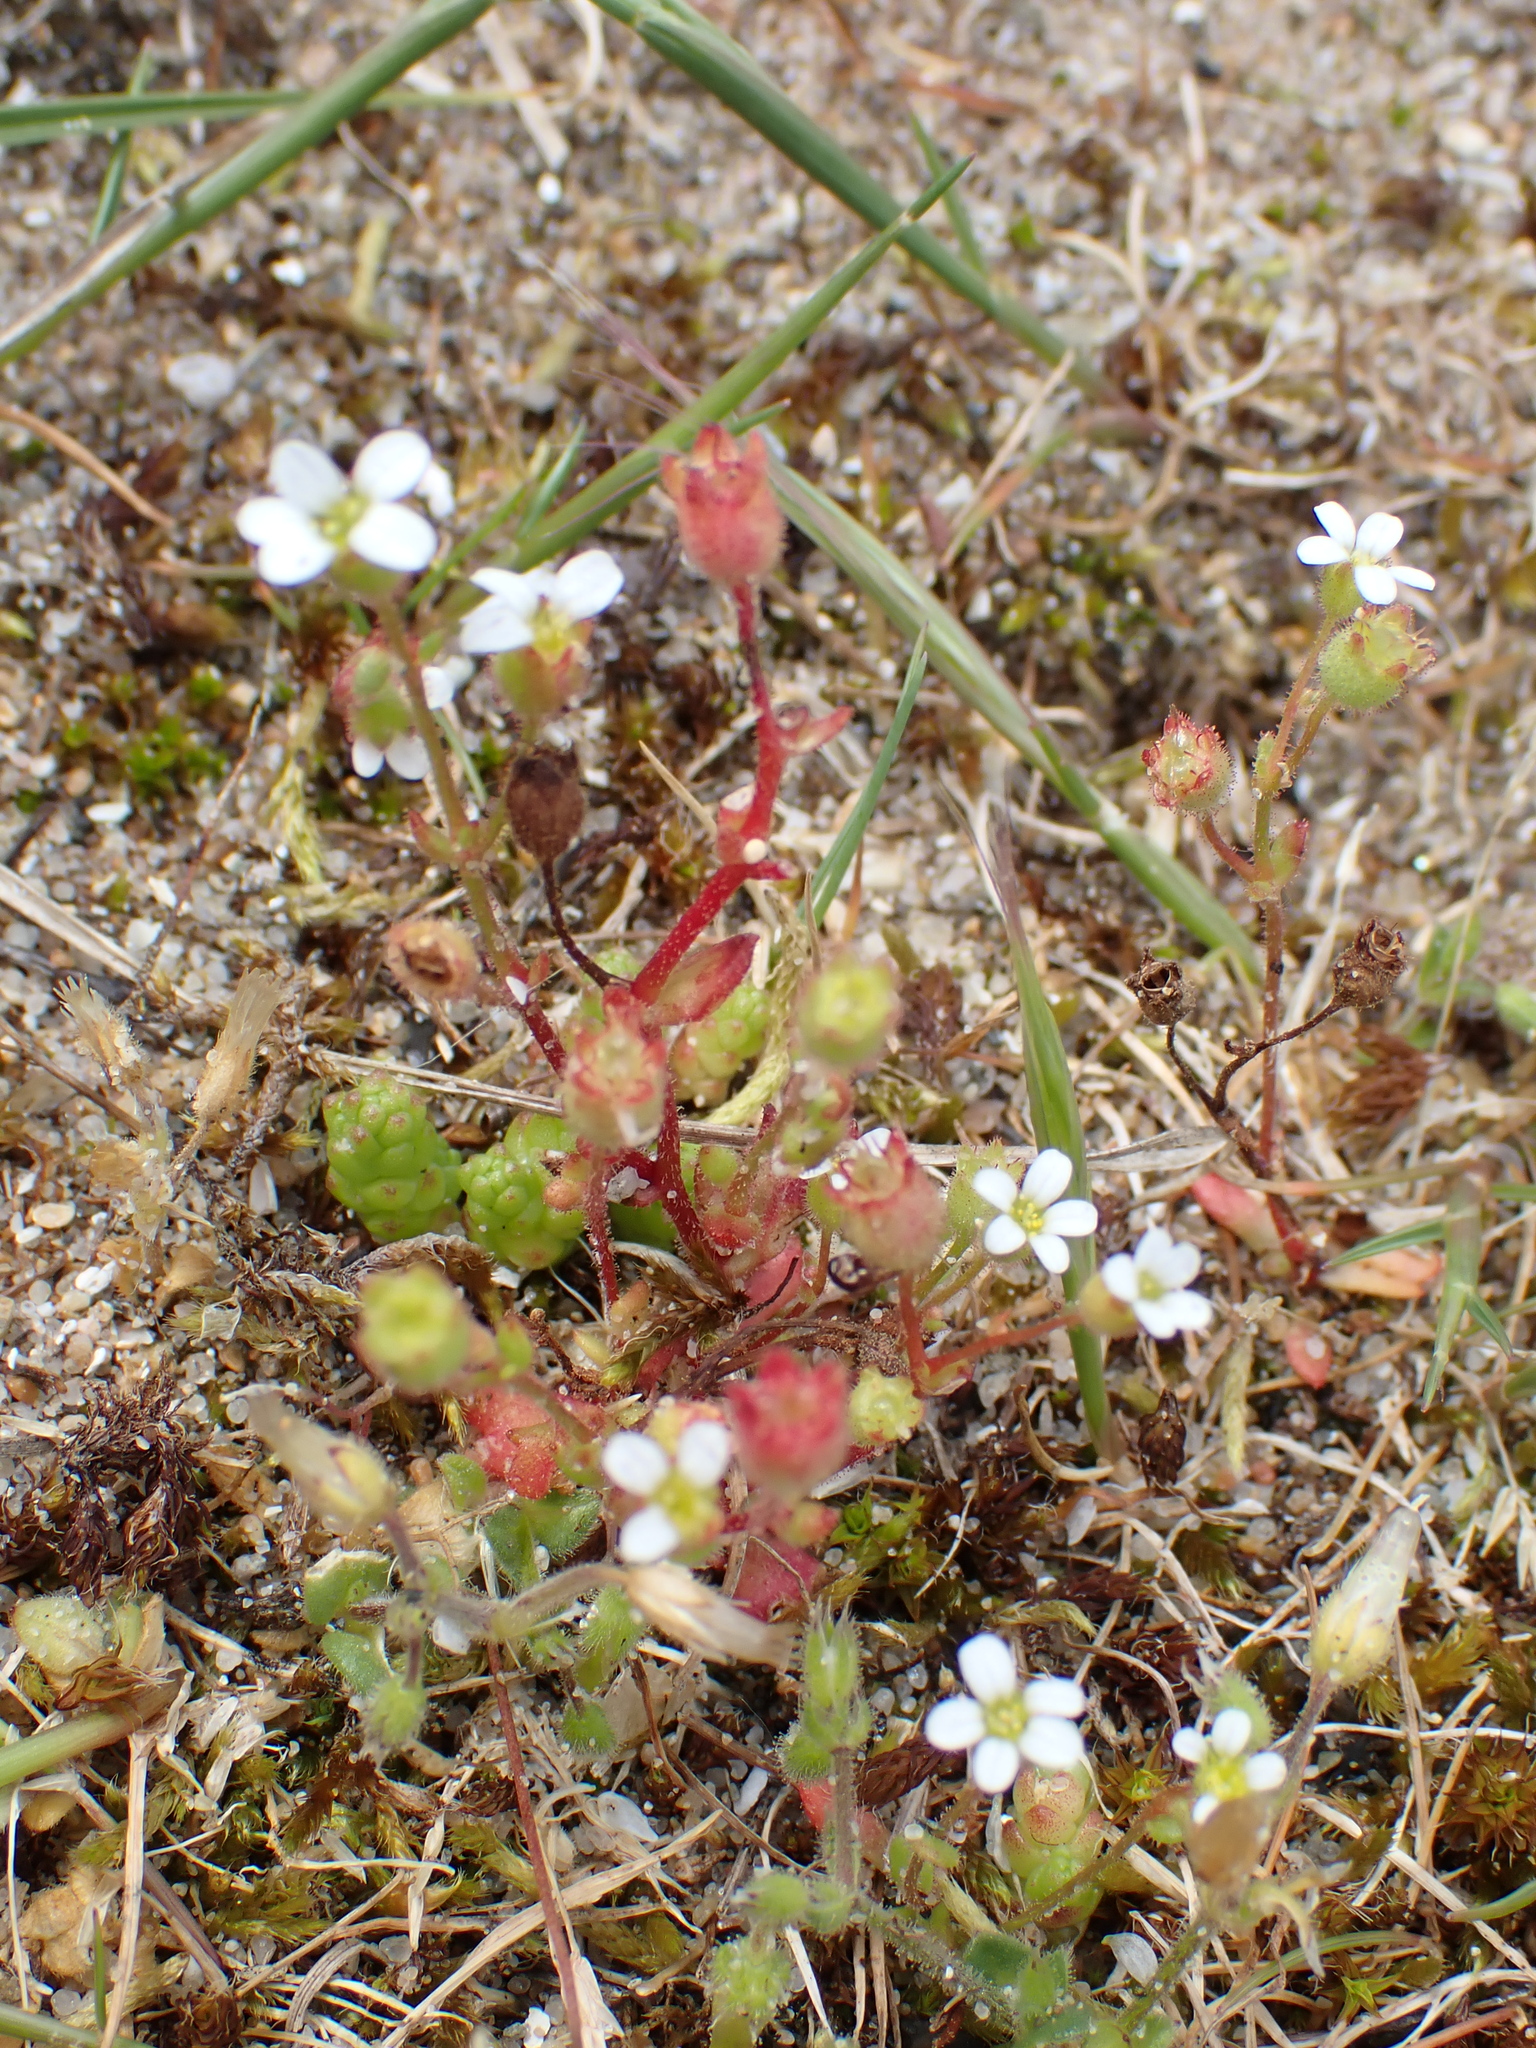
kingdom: Plantae
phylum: Tracheophyta
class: Magnoliopsida
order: Saxifragales
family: Saxifragaceae
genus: Saxifraga
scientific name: Saxifraga tridactylites
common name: Rue-leaved saxifrage
